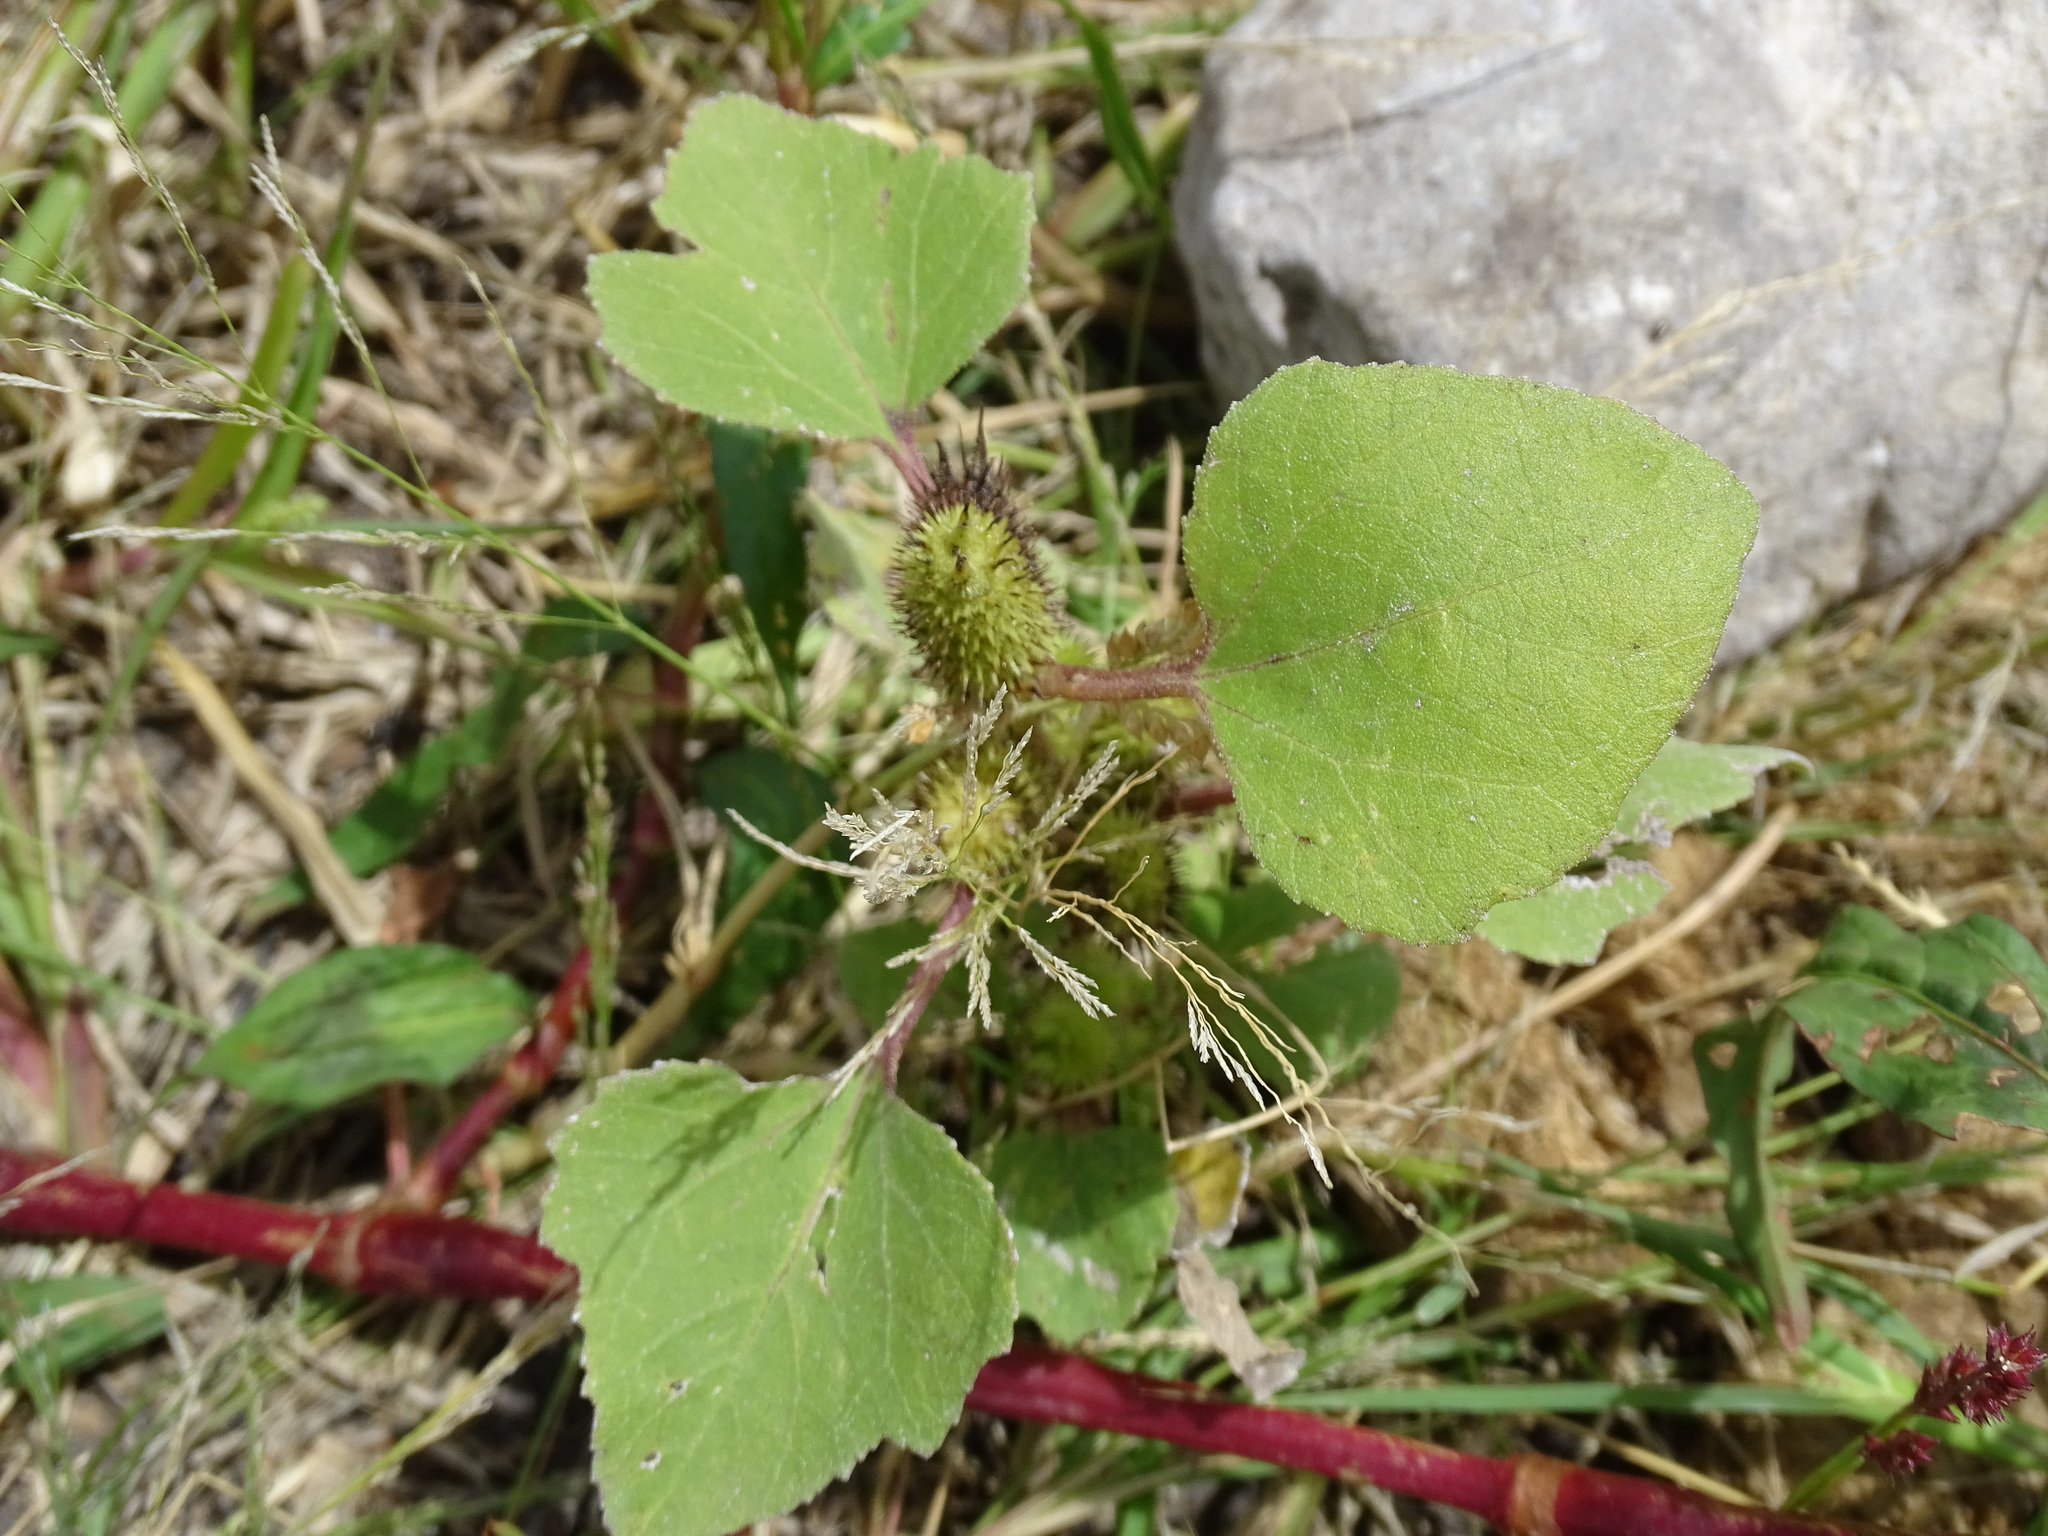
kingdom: Plantae
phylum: Tracheophyta
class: Magnoliopsida
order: Asterales
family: Asteraceae
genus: Xanthium
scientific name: Xanthium strumarium
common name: Rough cocklebur
